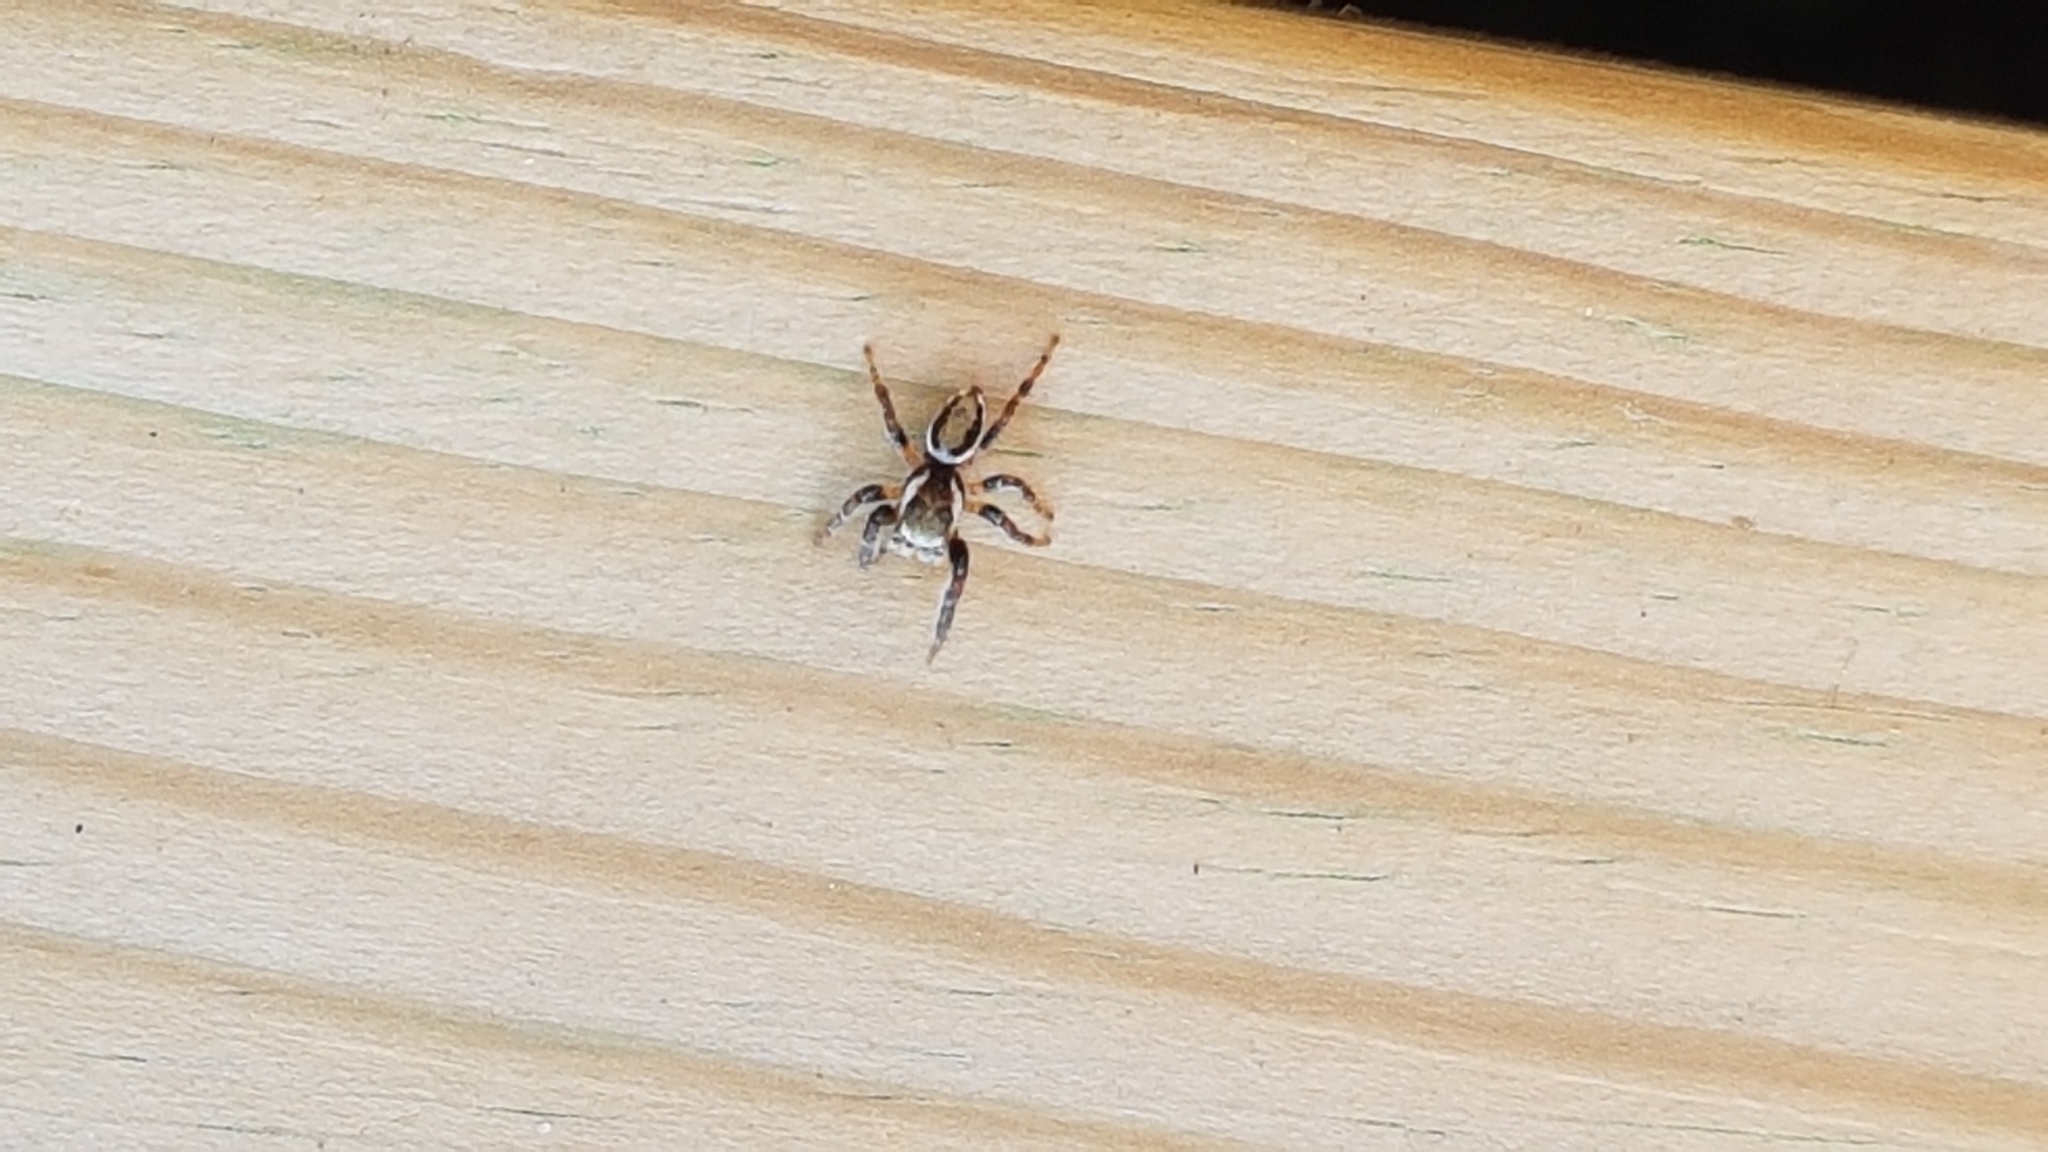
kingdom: Animalia
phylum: Arthropoda
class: Arachnida
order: Araneae
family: Salticidae
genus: Evarcha
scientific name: Evarcha falcata
